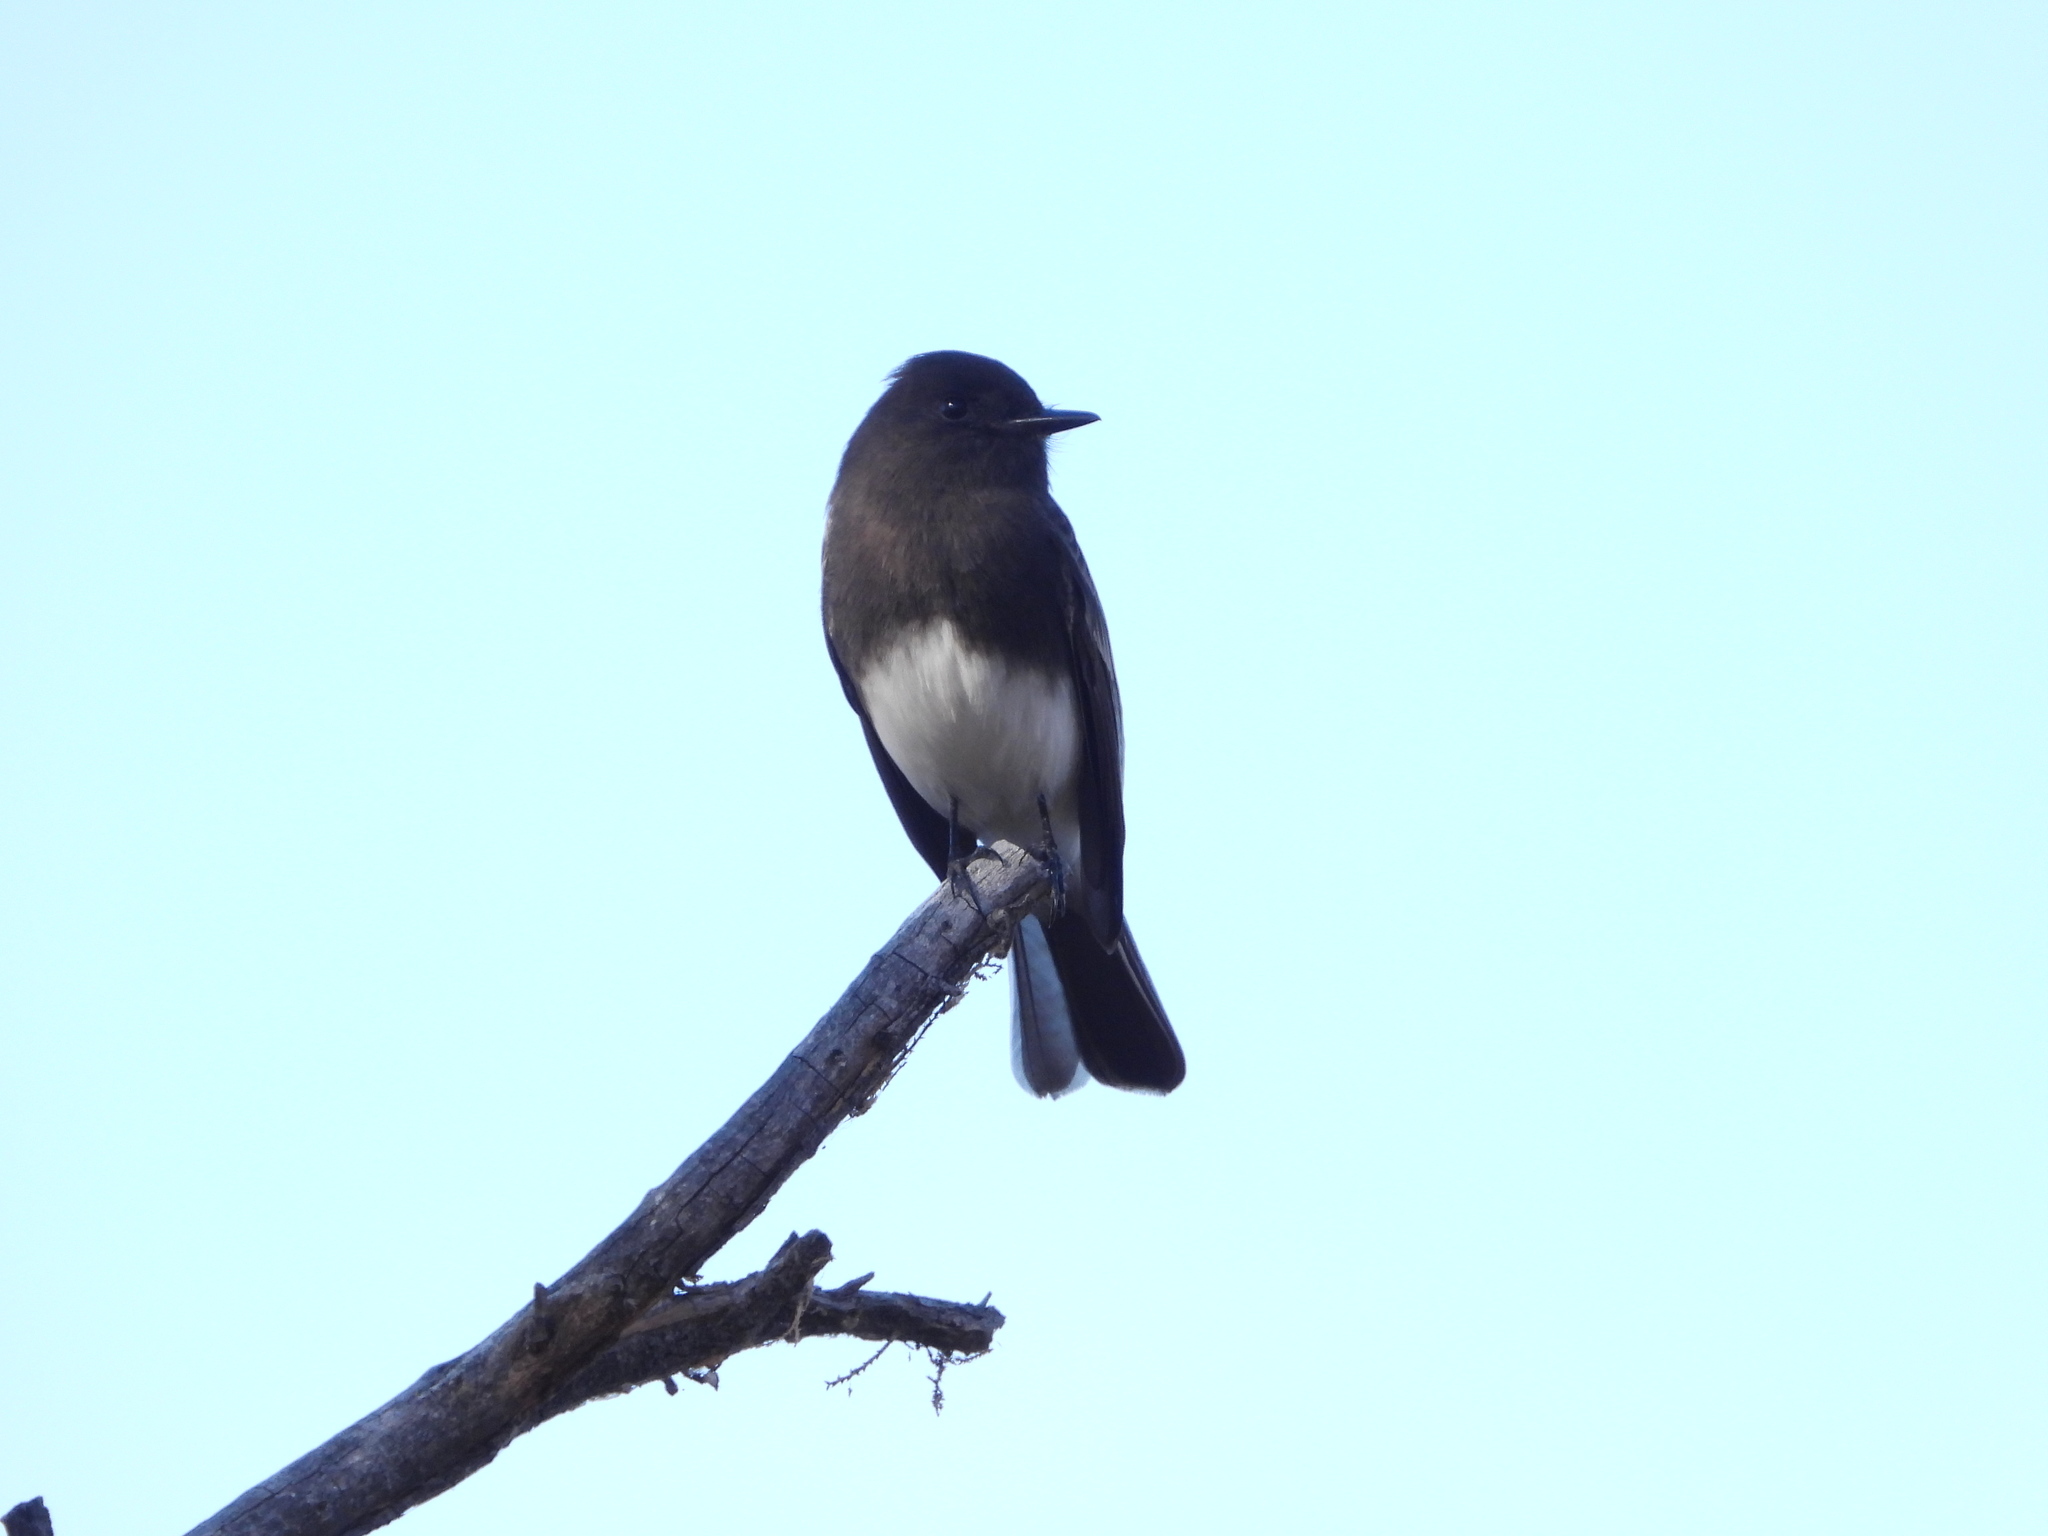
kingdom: Animalia
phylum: Chordata
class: Aves
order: Passeriformes
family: Tyrannidae
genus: Sayornis
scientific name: Sayornis nigricans
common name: Black phoebe
